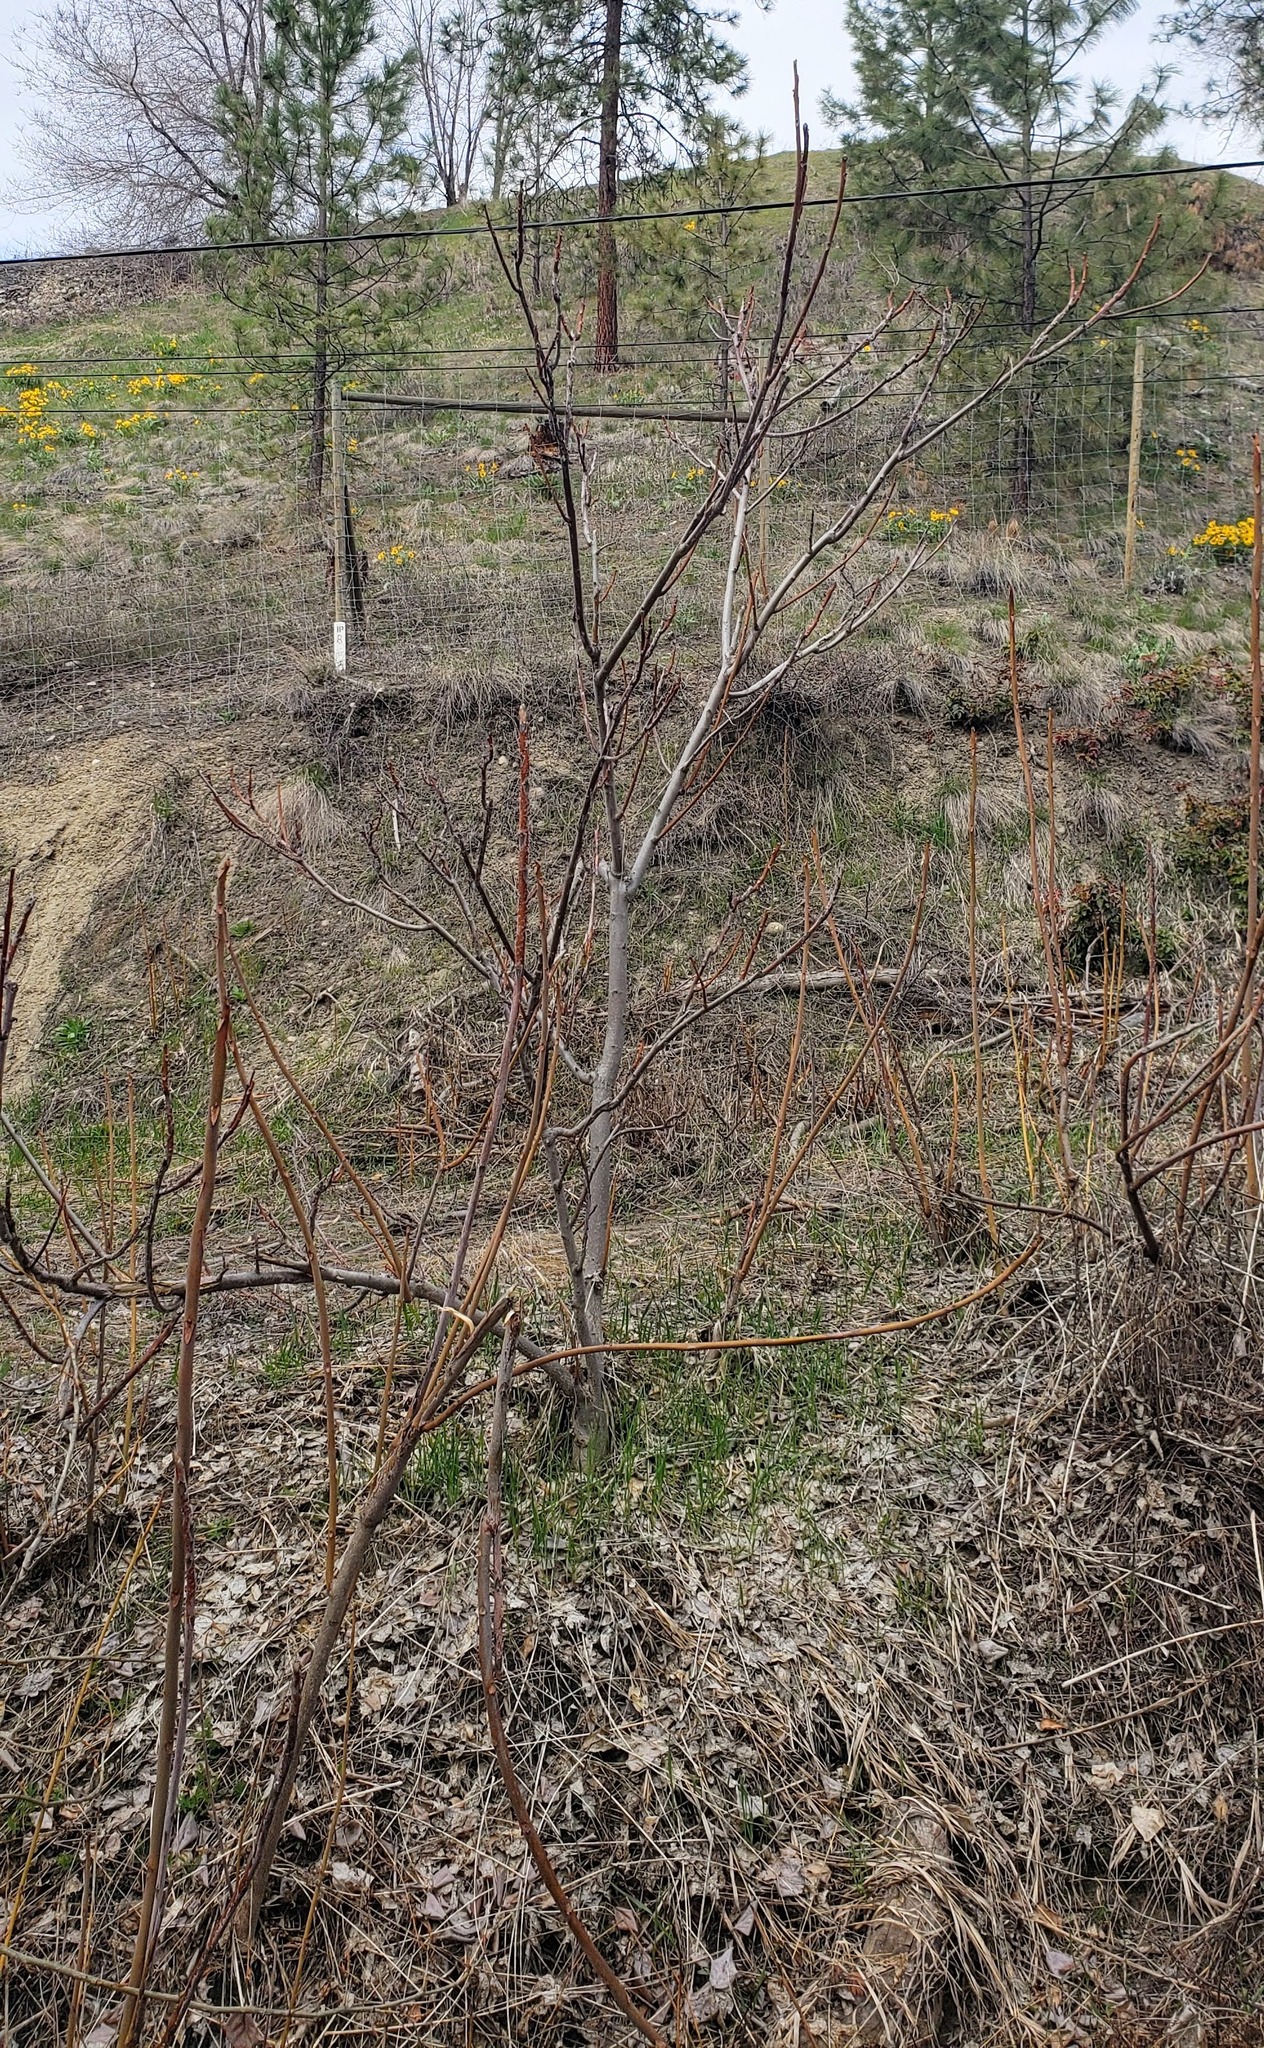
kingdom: Plantae
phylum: Tracheophyta
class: Magnoliopsida
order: Sapindales
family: Simaroubaceae
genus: Ailanthus
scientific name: Ailanthus altissima
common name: Tree-of-heaven
